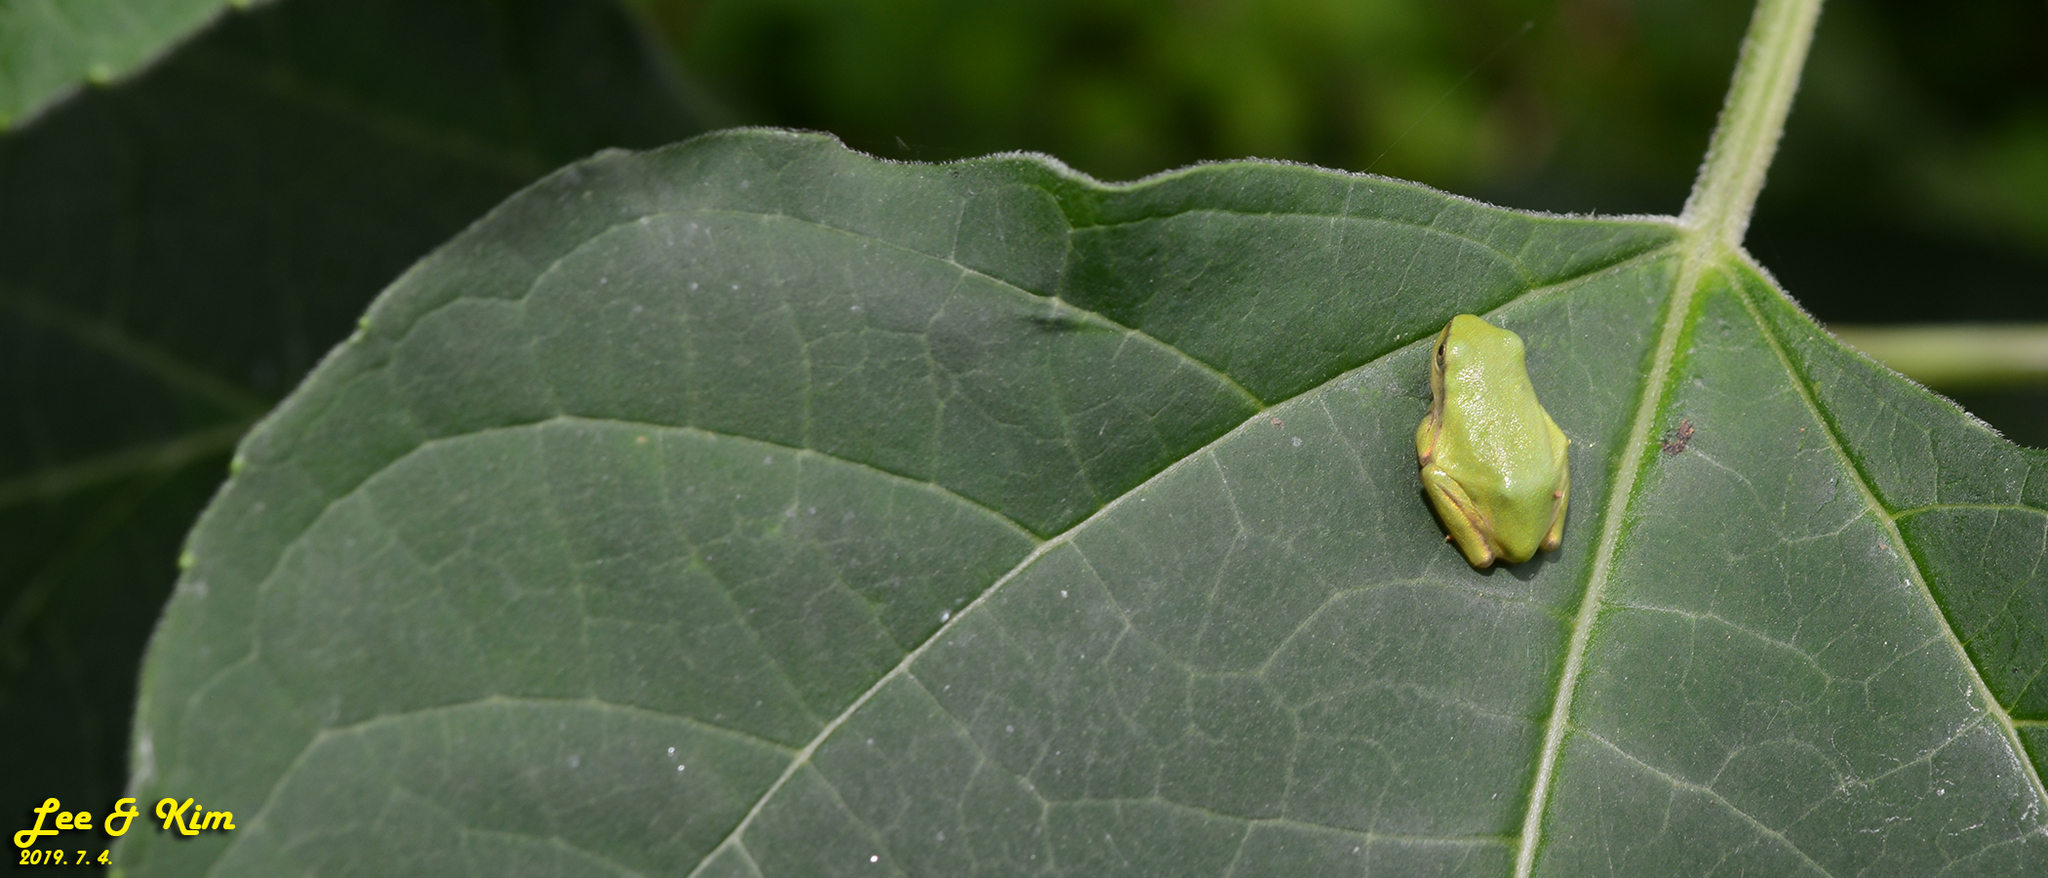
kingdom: Animalia
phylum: Chordata
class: Amphibia
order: Anura
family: Hylidae
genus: Dryophytes
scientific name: Dryophytes japonicus
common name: Japanese treefrog
